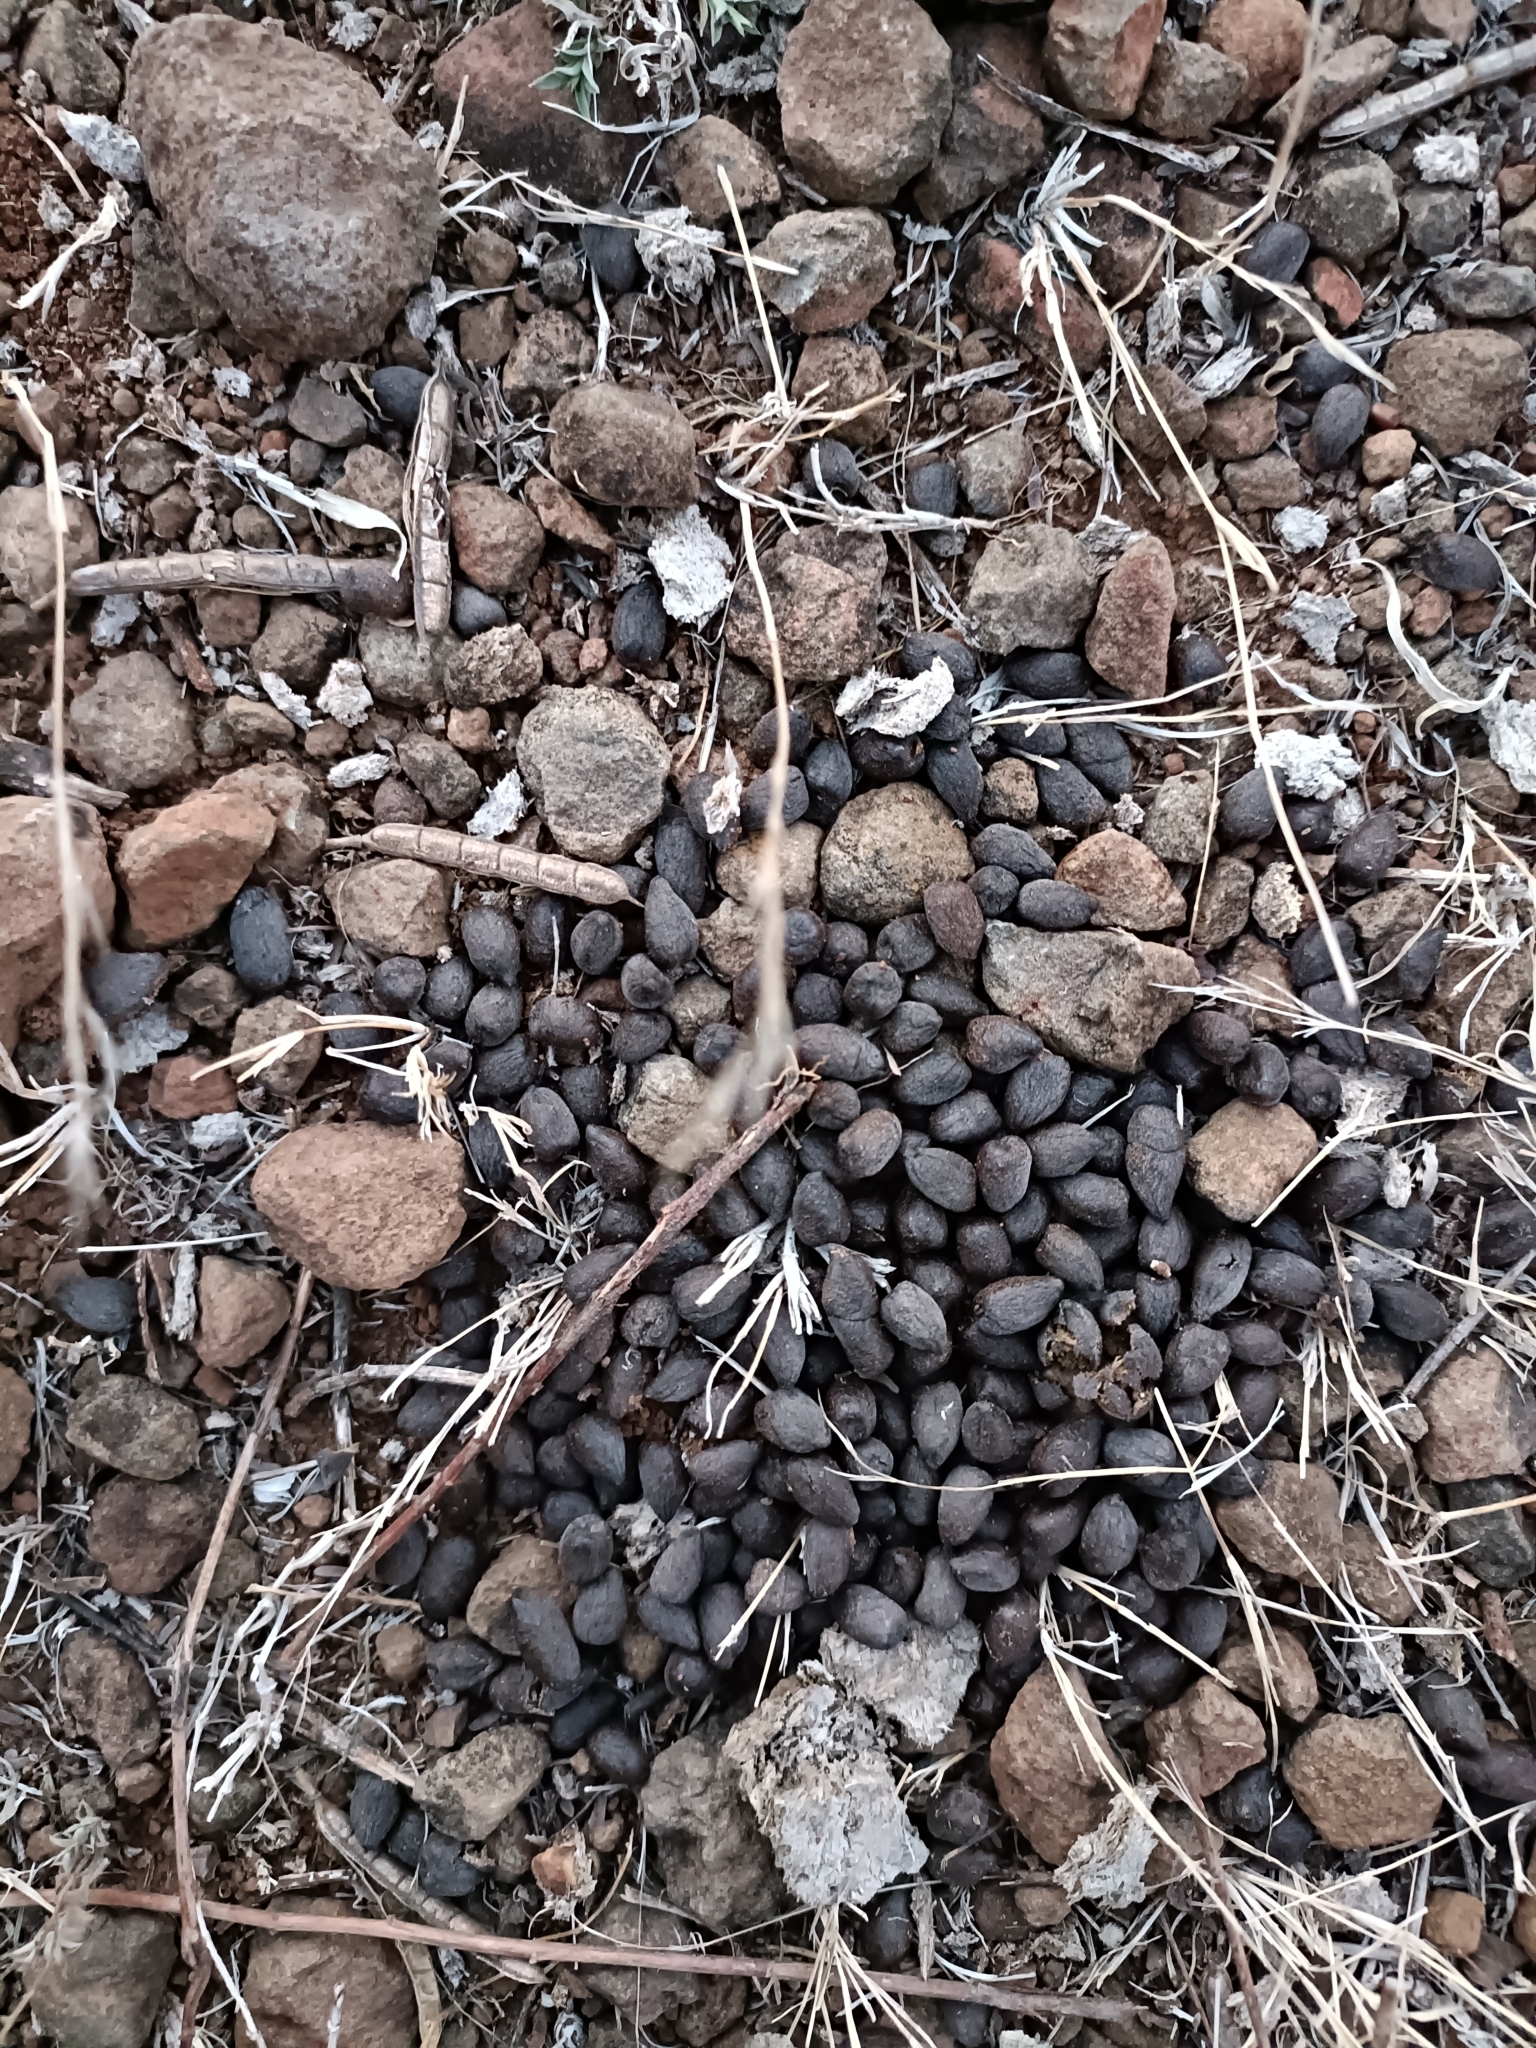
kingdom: Animalia
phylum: Chordata
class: Mammalia
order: Artiodactyla
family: Bovidae
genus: Gazella
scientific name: Gazella bennettii
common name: Indian gazelle
